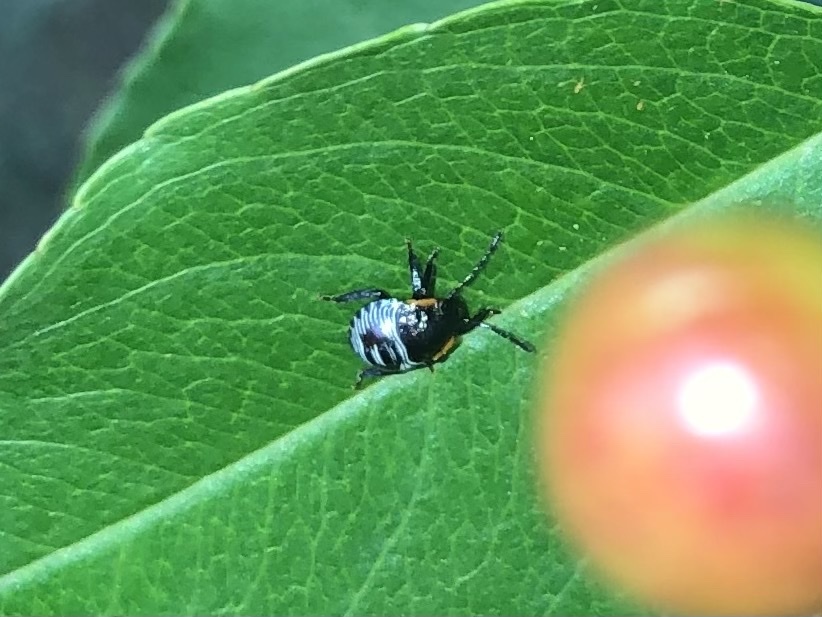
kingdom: Animalia
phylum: Arthropoda
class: Insecta
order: Hemiptera
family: Pentatomidae
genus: Chinavia
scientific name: Chinavia hilaris
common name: Green stink bug
